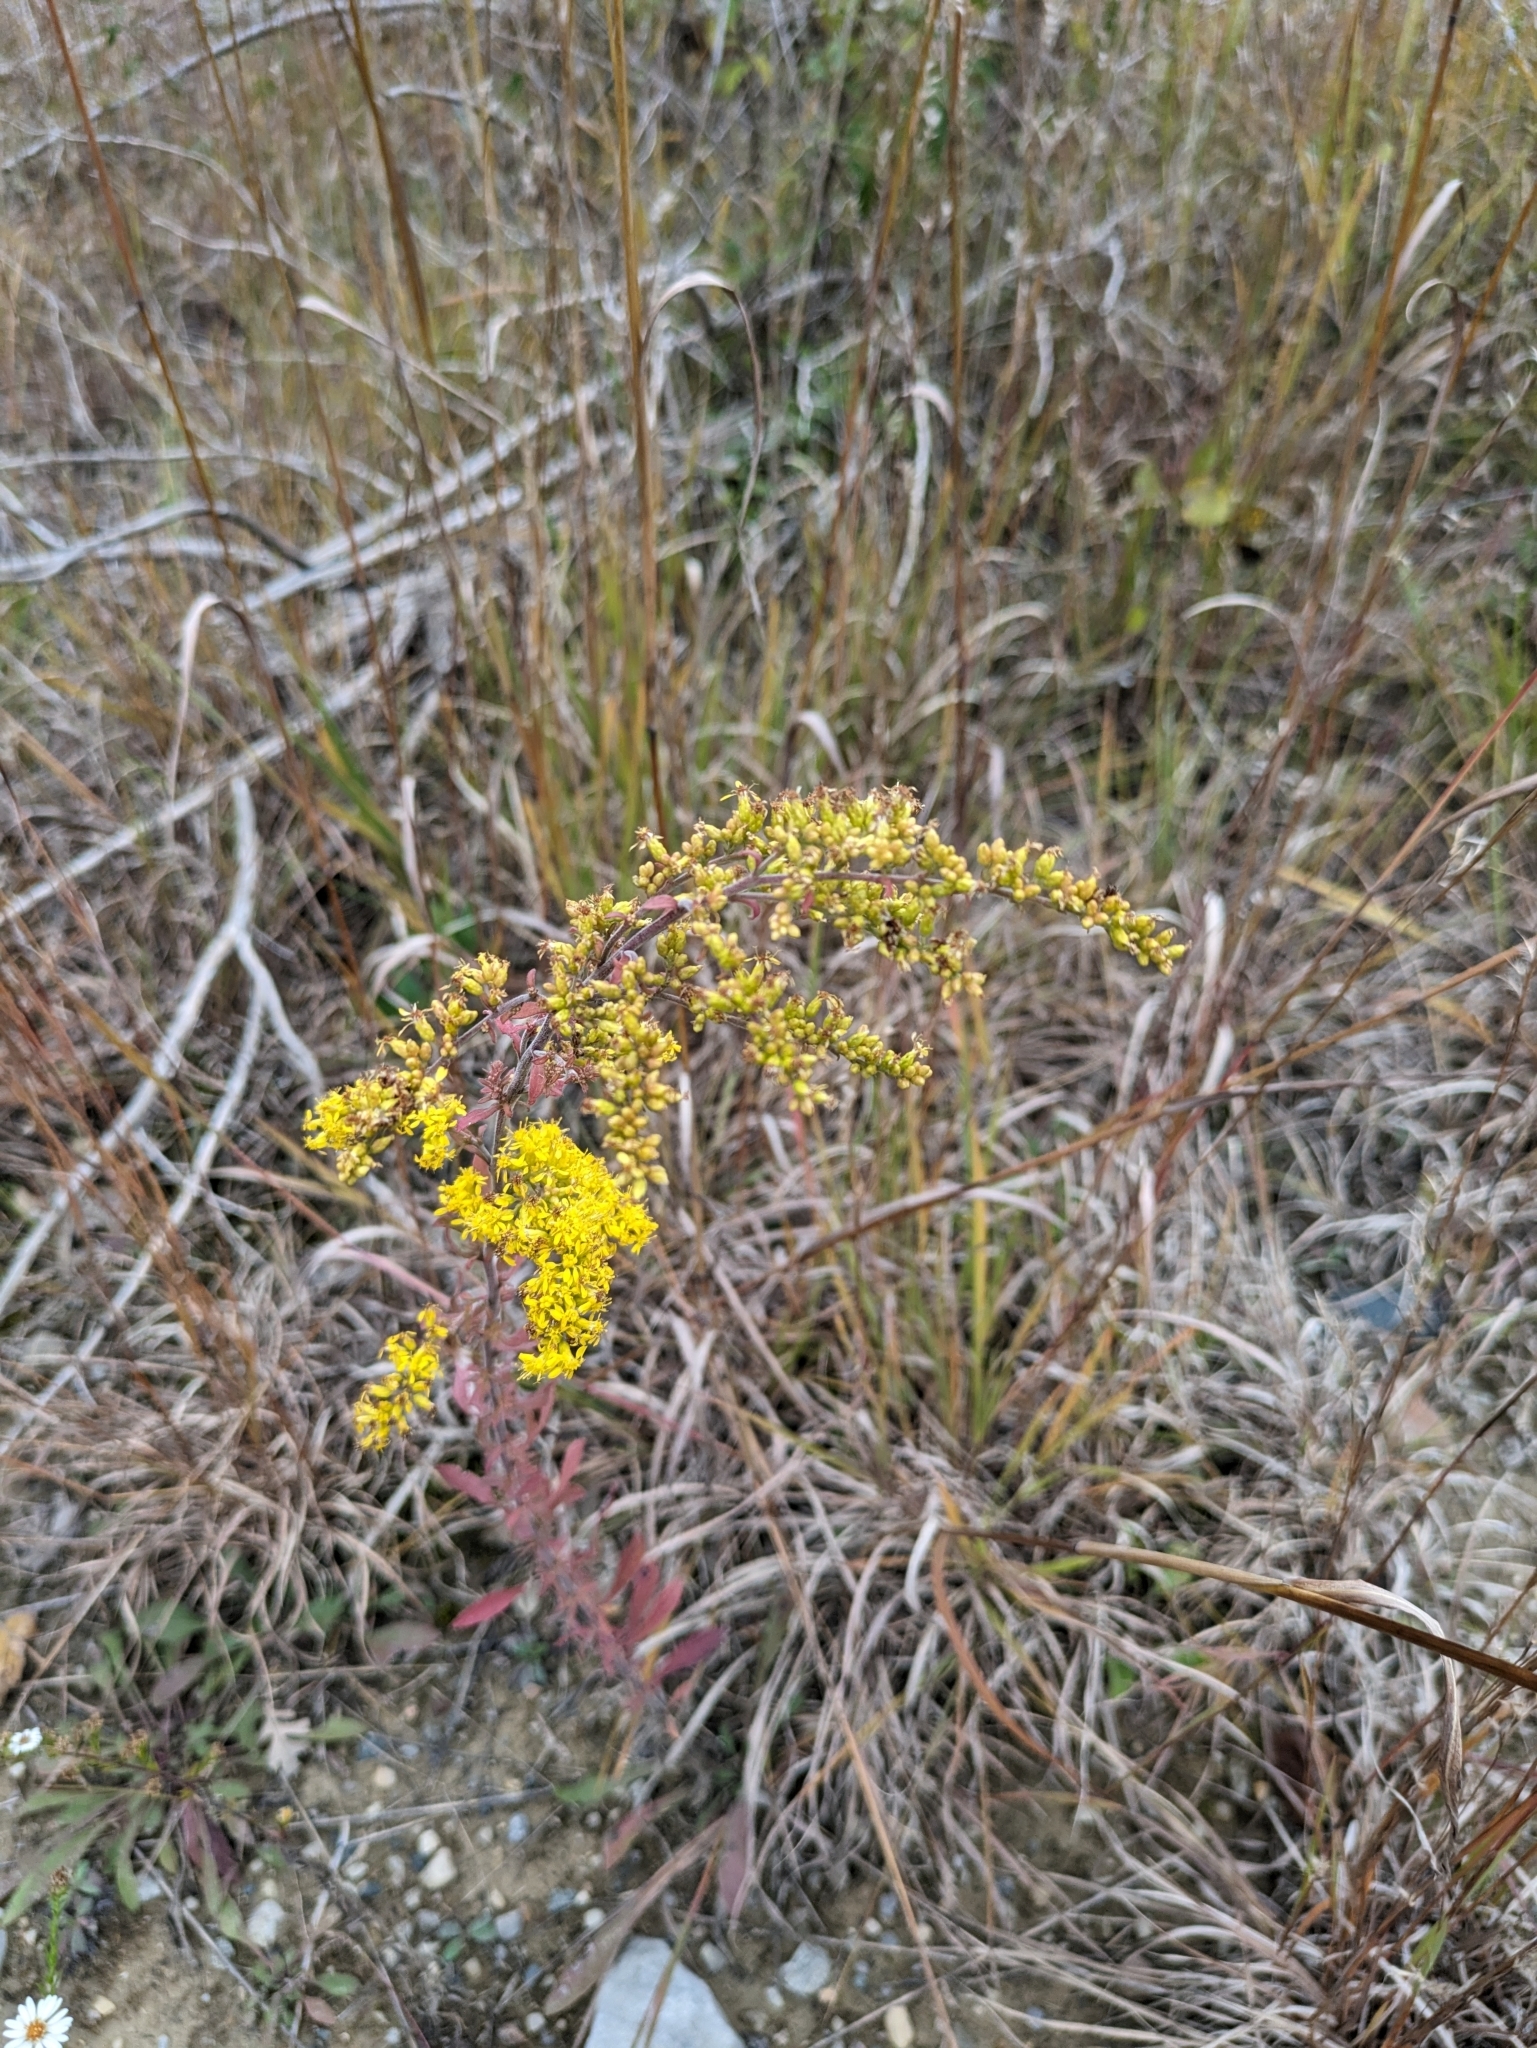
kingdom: Plantae
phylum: Tracheophyta
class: Magnoliopsida
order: Asterales
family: Asteraceae
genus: Solidago
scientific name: Solidago nemoralis
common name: Grey goldenrod
